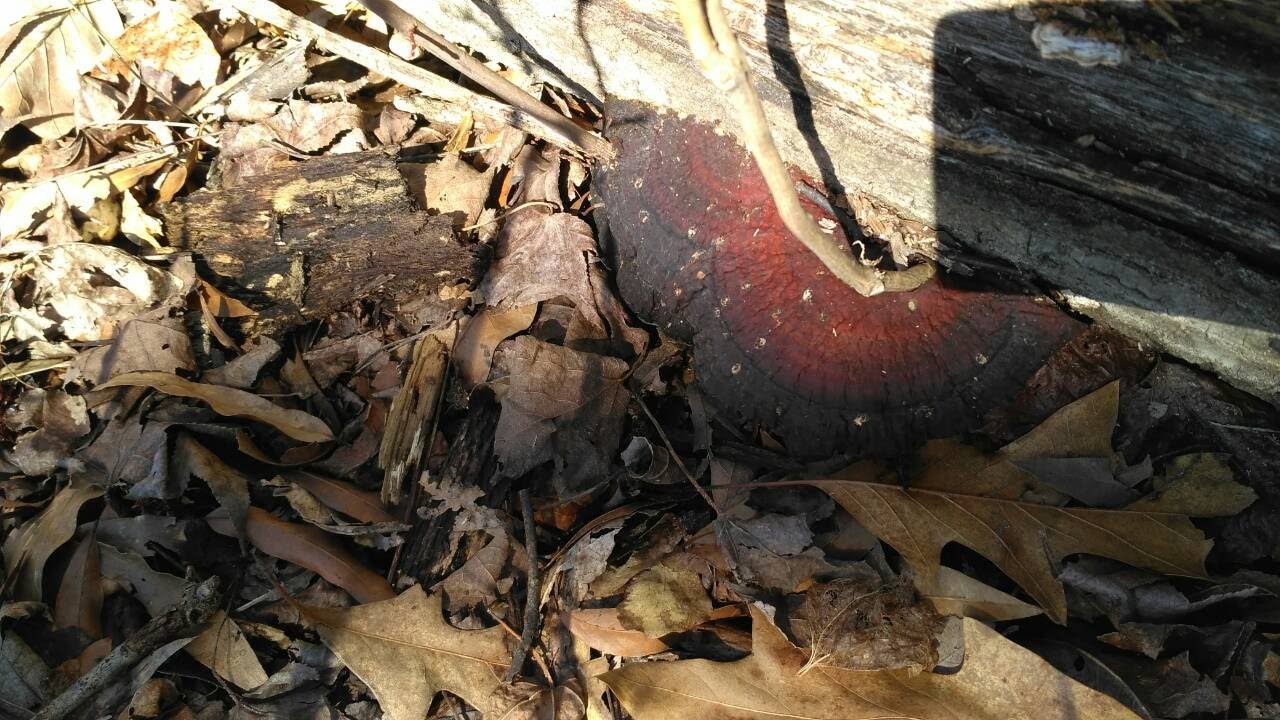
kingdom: Fungi
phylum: Basidiomycota
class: Agaricomycetes
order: Polyporales
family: Polyporaceae
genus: Ganoderma
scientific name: Ganoderma resinaceum
